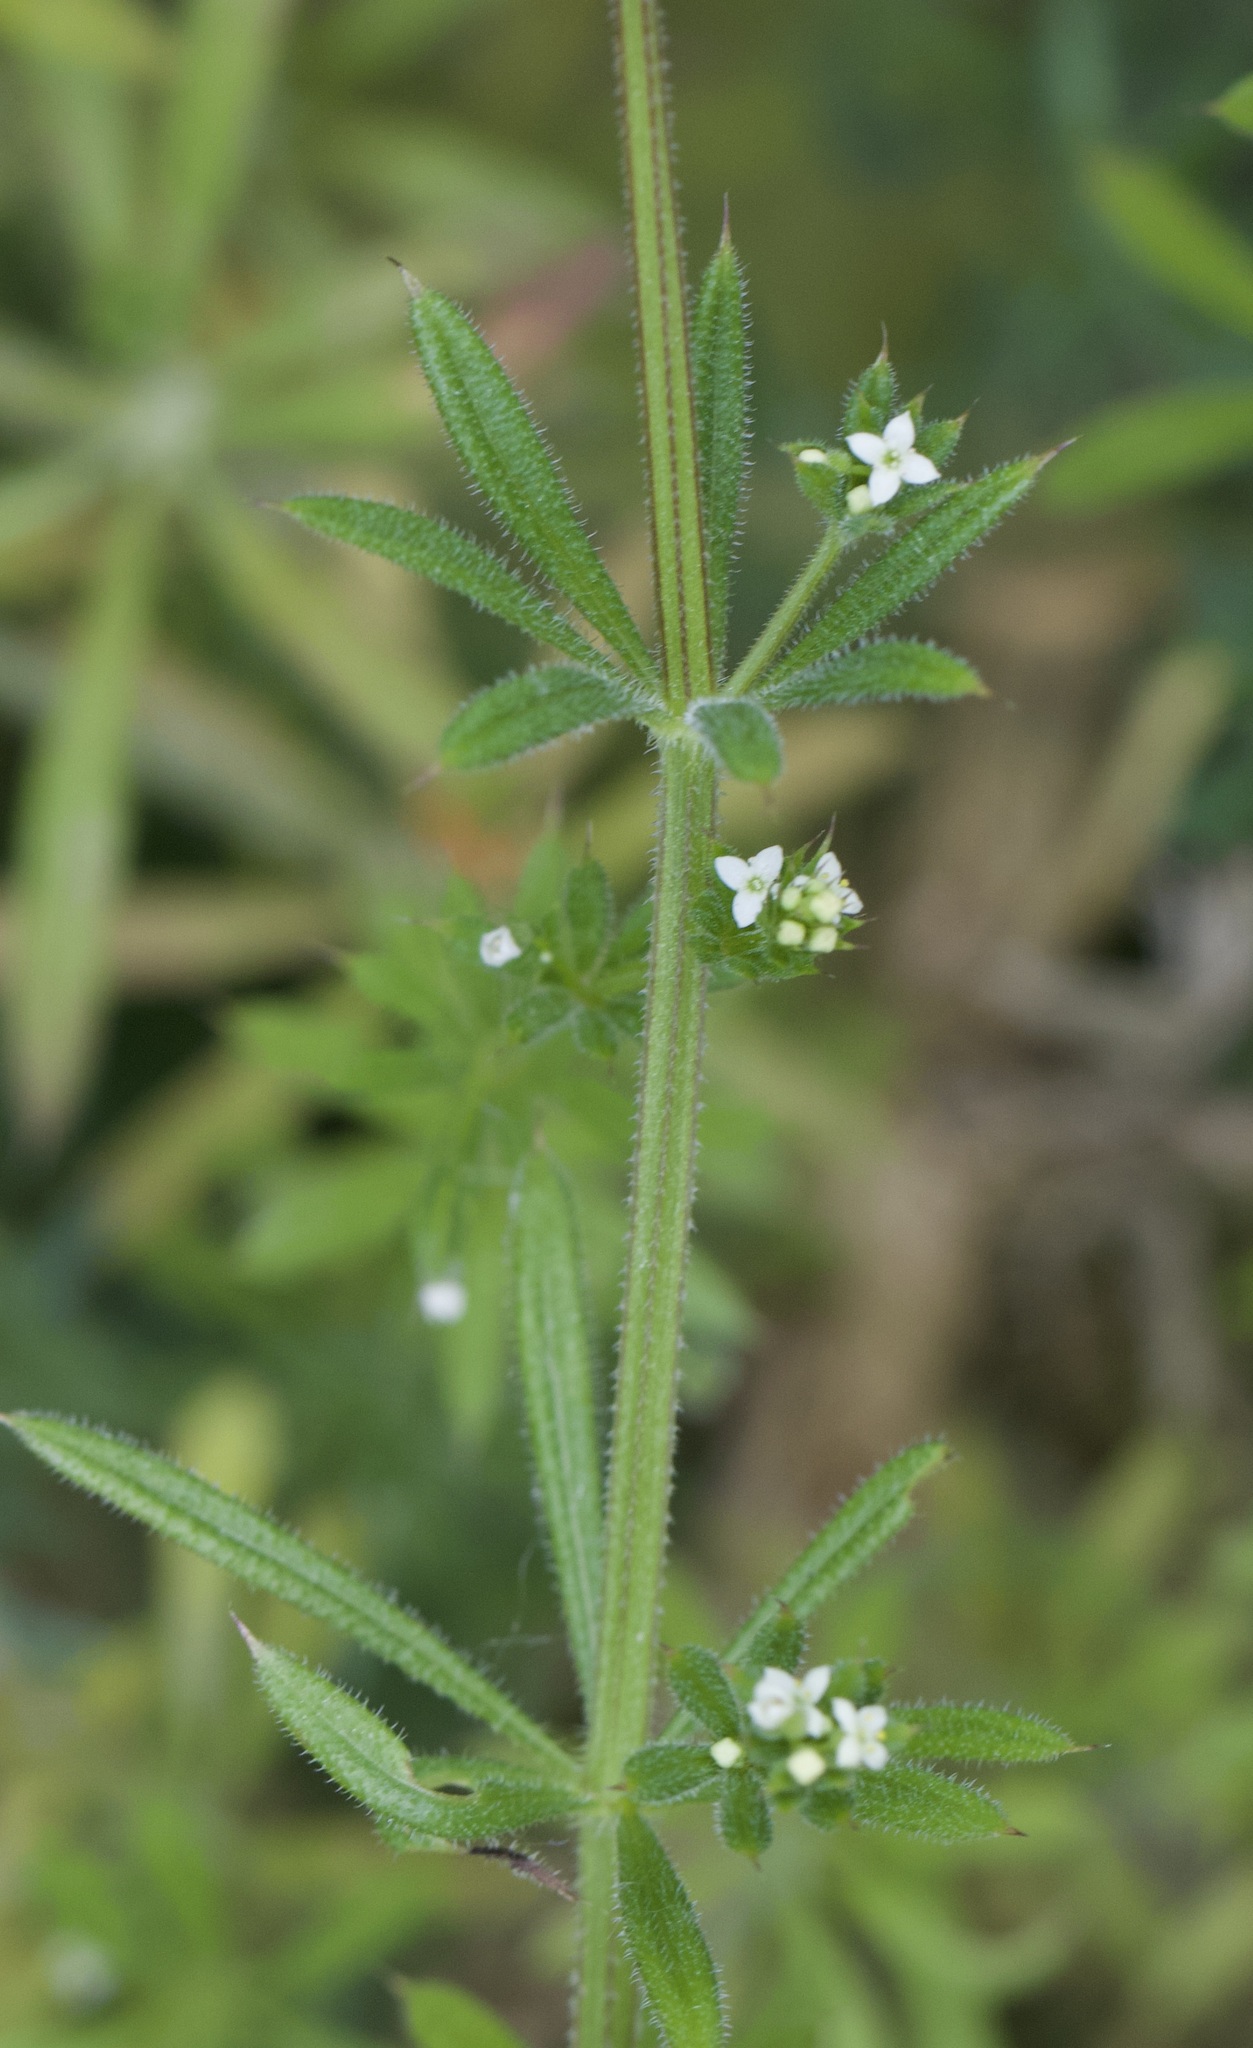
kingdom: Plantae
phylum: Tracheophyta
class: Magnoliopsida
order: Gentianales
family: Rubiaceae
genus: Galium
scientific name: Galium aparine
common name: Cleavers
